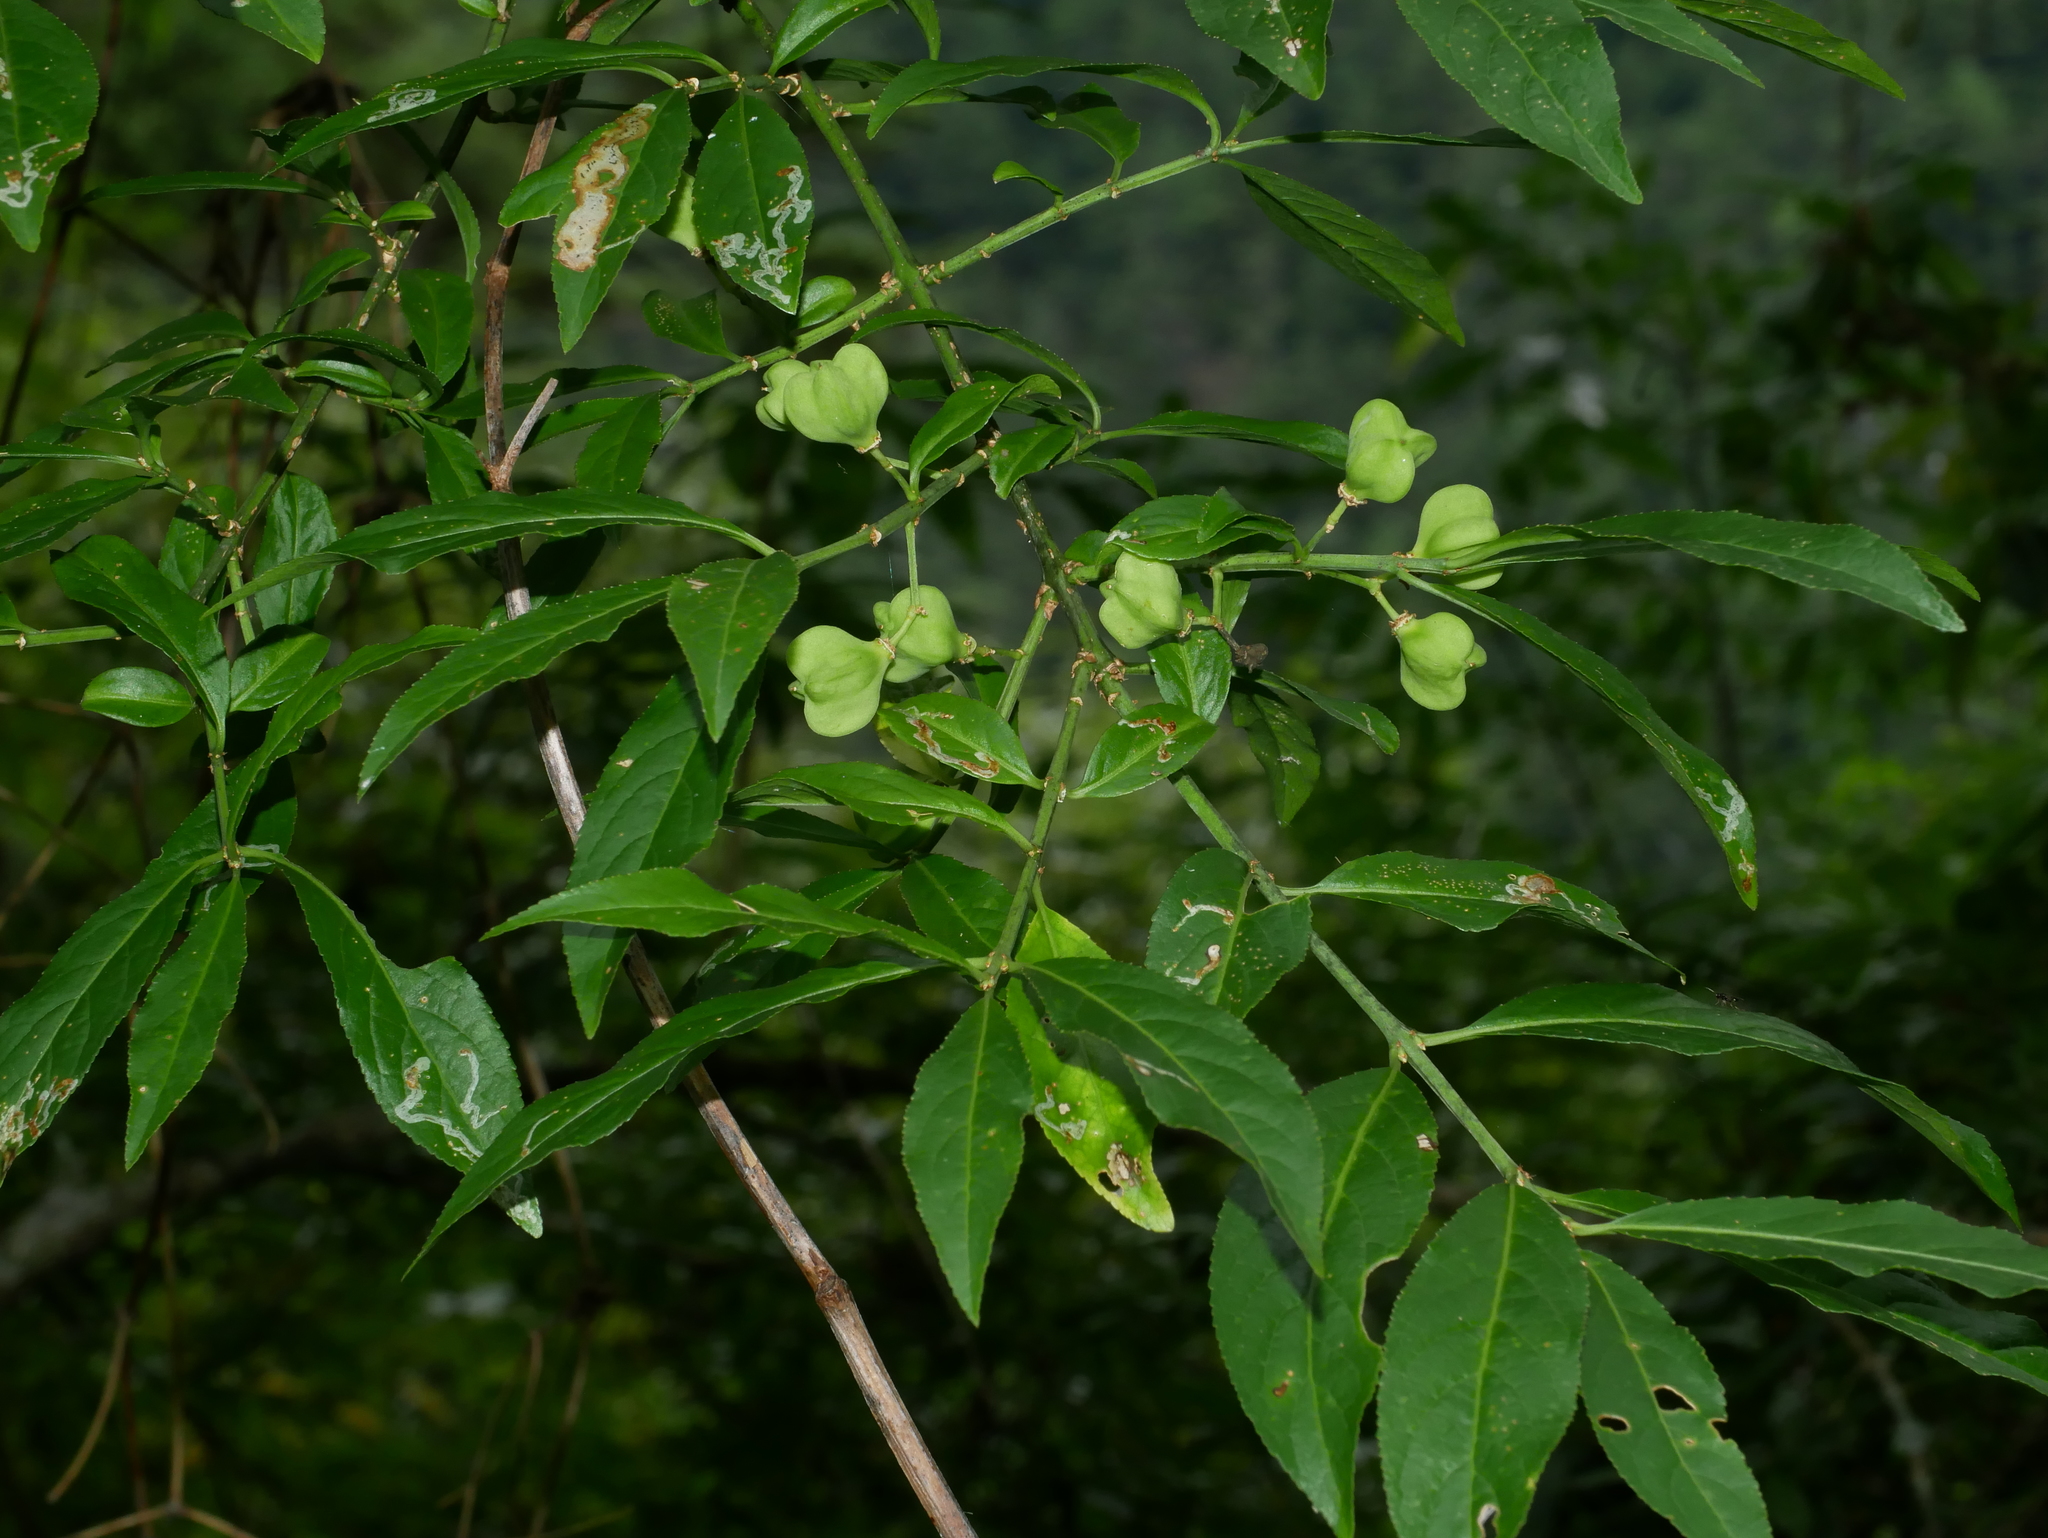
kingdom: Plantae
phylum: Tracheophyta
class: Magnoliopsida
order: Celastrales
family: Celastraceae
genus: Euonymus
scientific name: Euonymus carnosus
